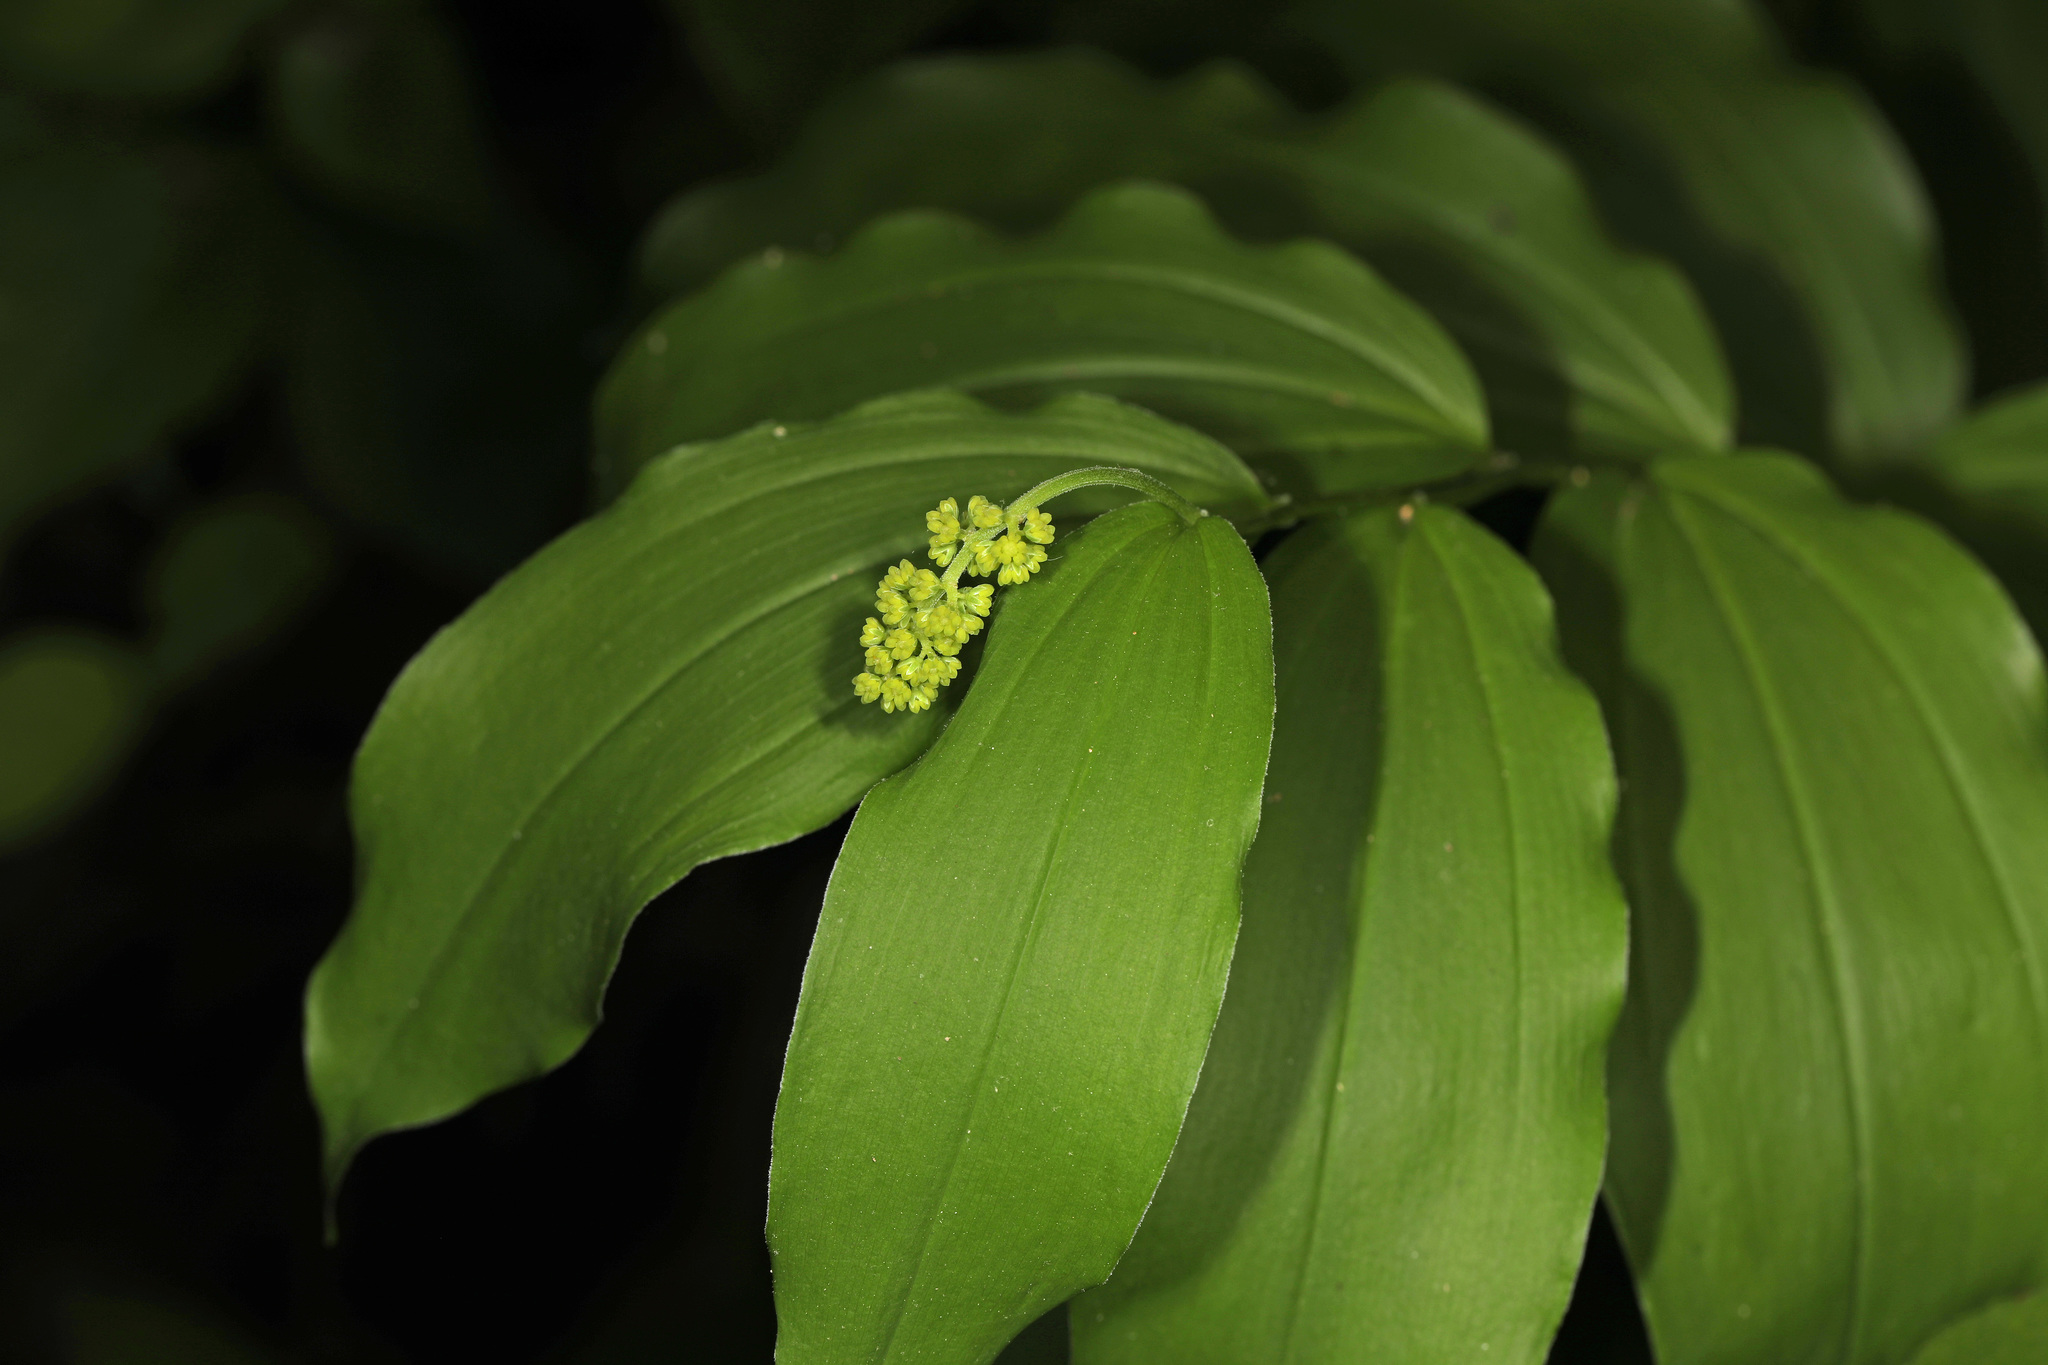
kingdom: Plantae
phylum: Tracheophyta
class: Liliopsida
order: Asparagales
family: Asparagaceae
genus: Maianthemum
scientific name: Maianthemum racemosum
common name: False spikenard
